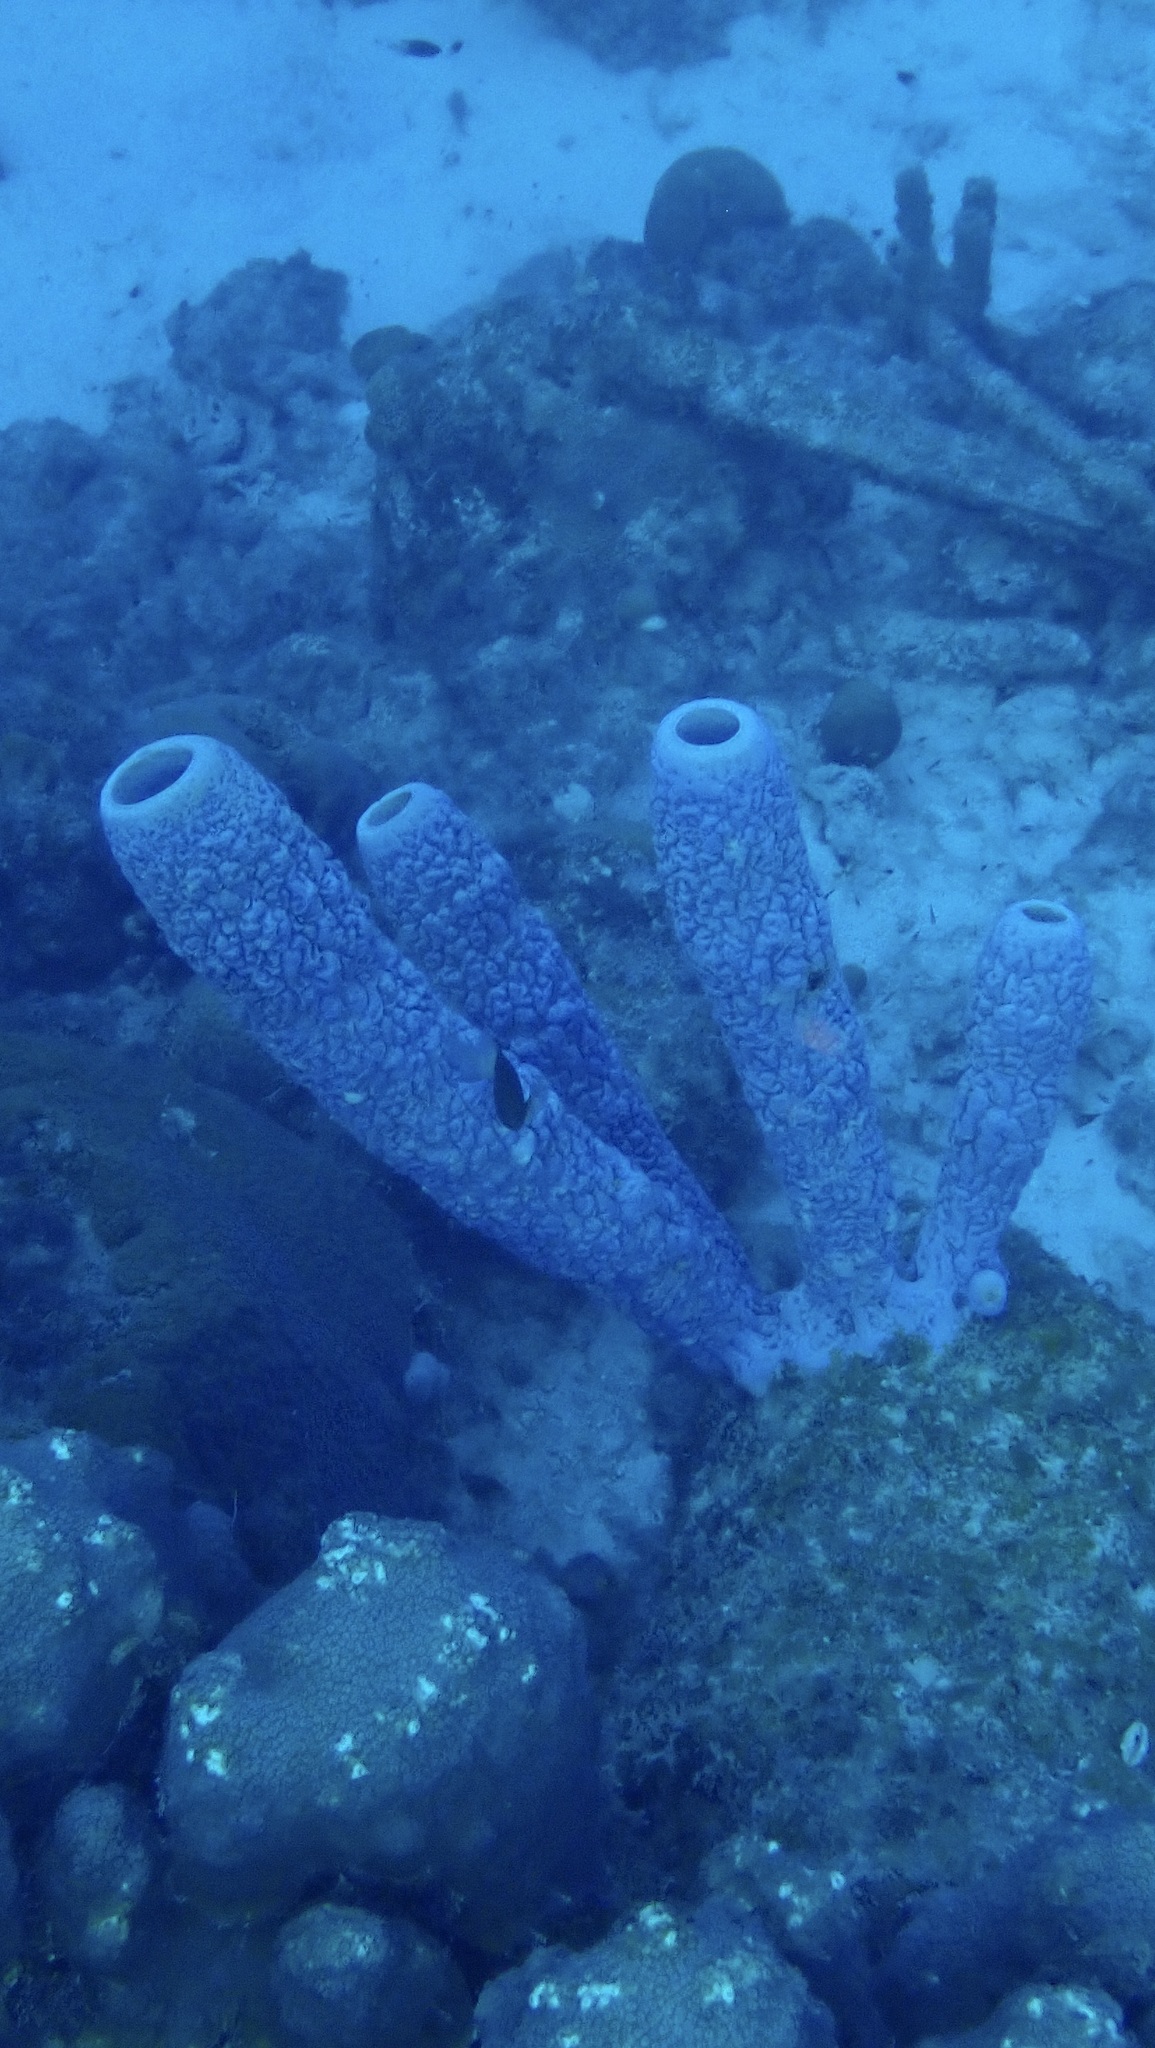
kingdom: Animalia
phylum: Porifera
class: Demospongiae
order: Verongiida
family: Aplysinidae
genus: Aplysina
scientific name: Aplysina archeri
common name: Stove-pipe sponge
